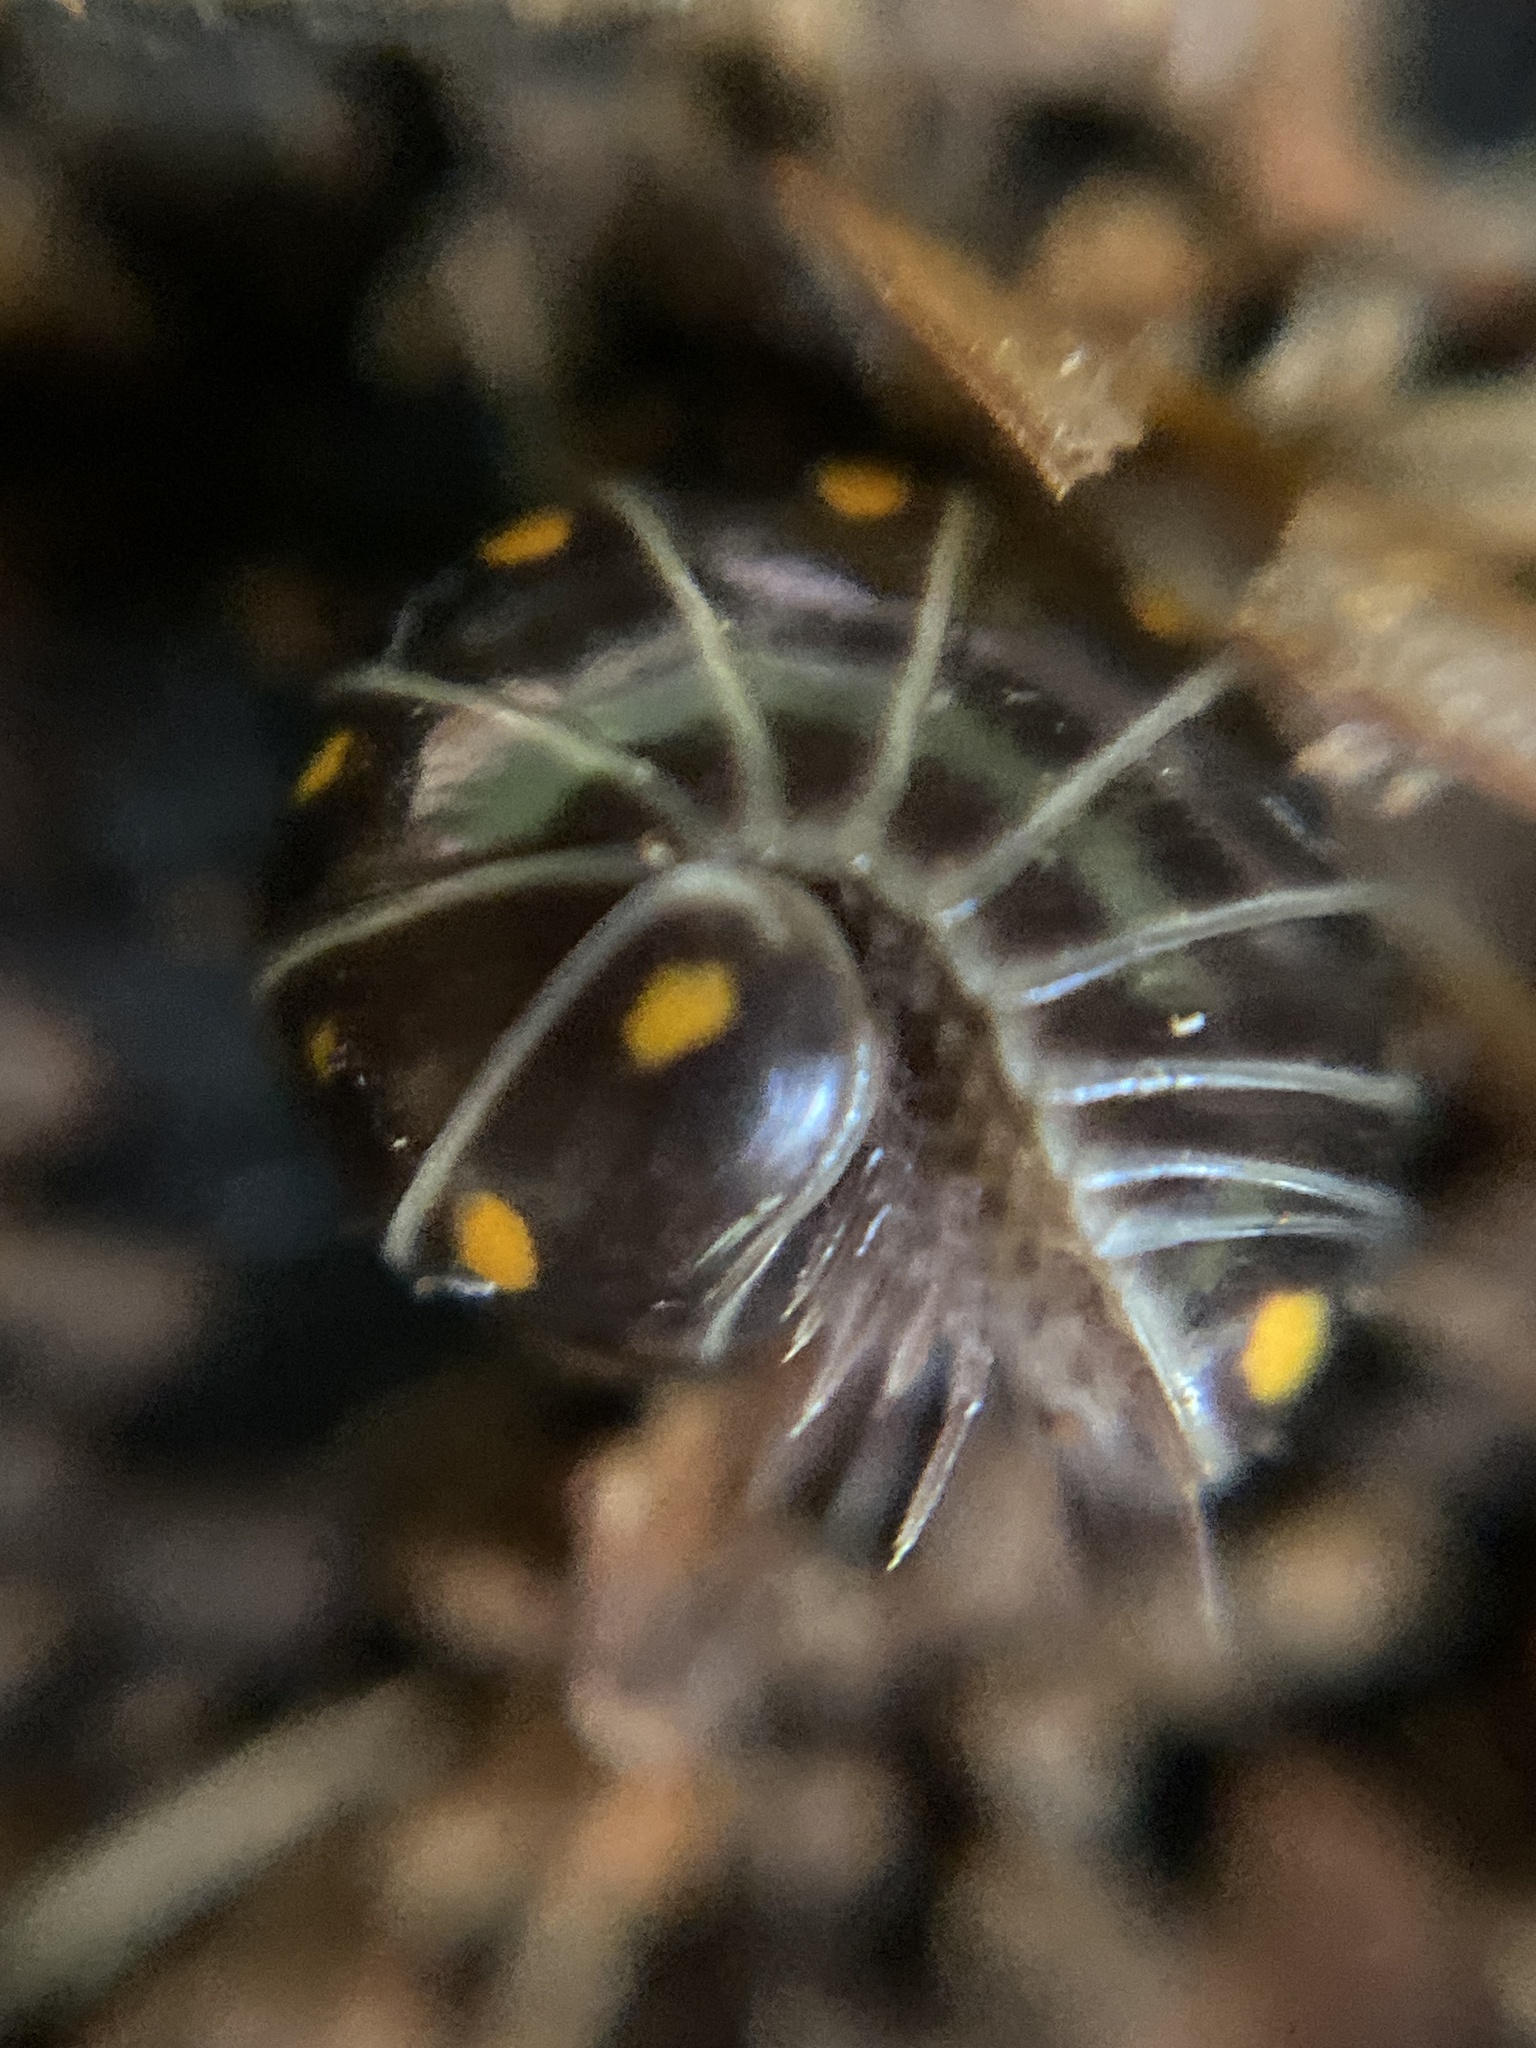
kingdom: Animalia
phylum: Arthropoda
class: Diplopoda
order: Glomerida
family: Glomeridae
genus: Glomeris
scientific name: Glomeris pustulata
